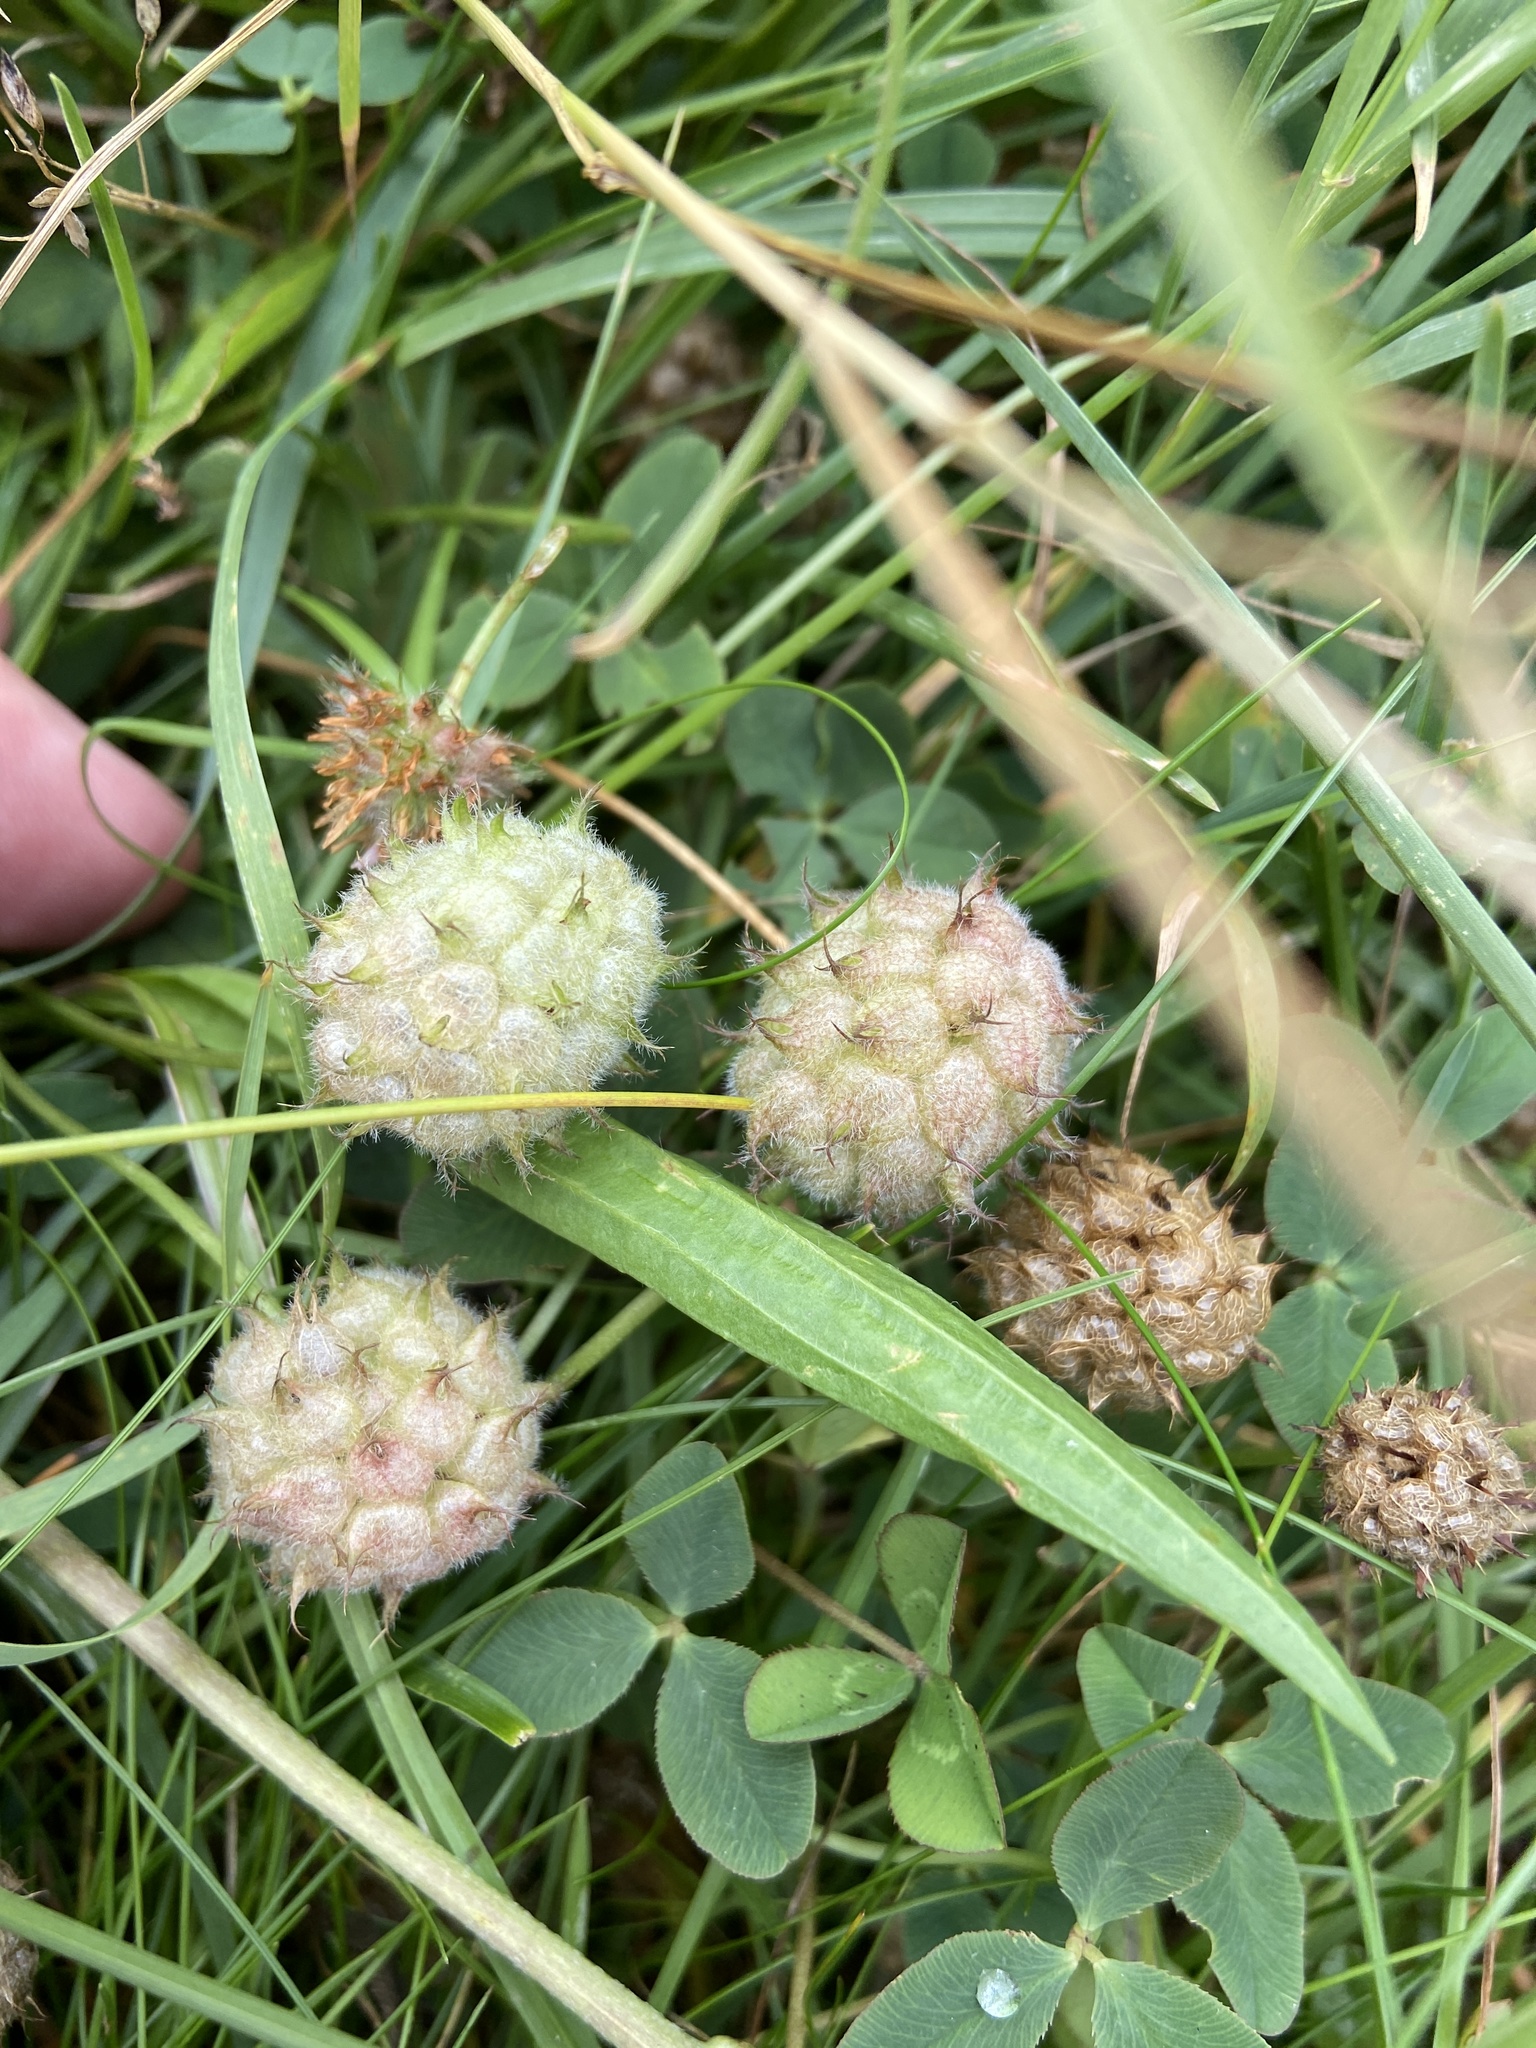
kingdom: Plantae
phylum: Tracheophyta
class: Magnoliopsida
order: Fabales
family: Fabaceae
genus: Trifolium
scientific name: Trifolium fragiferum
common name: Strawberry clover
